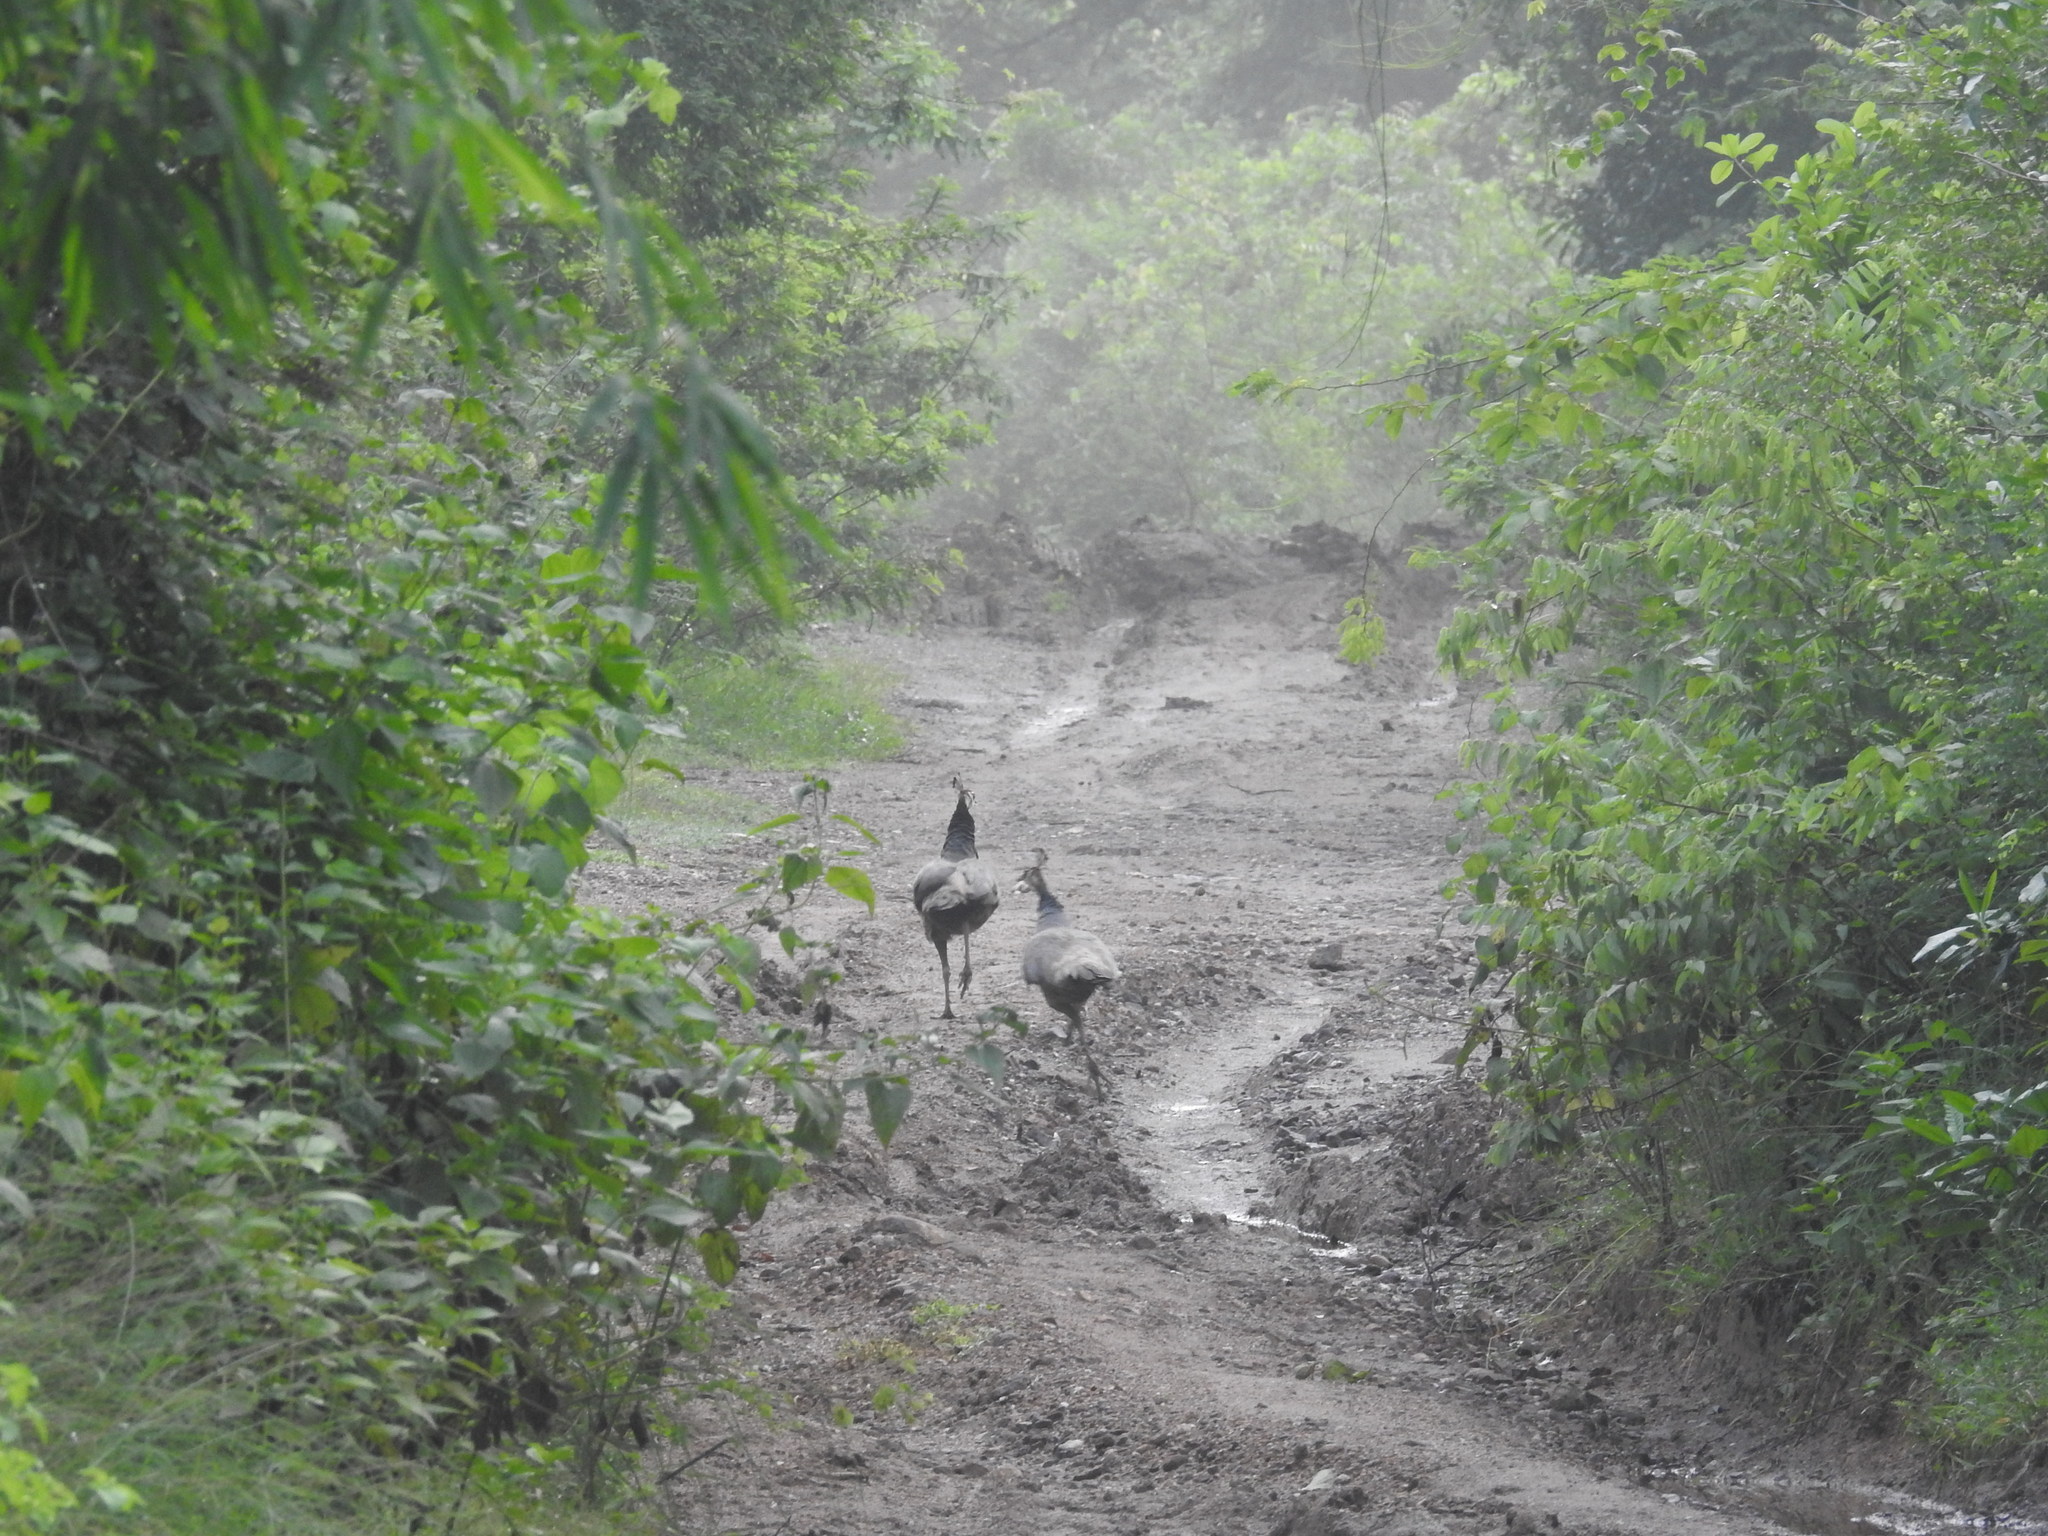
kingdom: Animalia
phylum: Chordata
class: Aves
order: Galliformes
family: Phasianidae
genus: Pavo
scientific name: Pavo cristatus
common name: Indian peafowl
